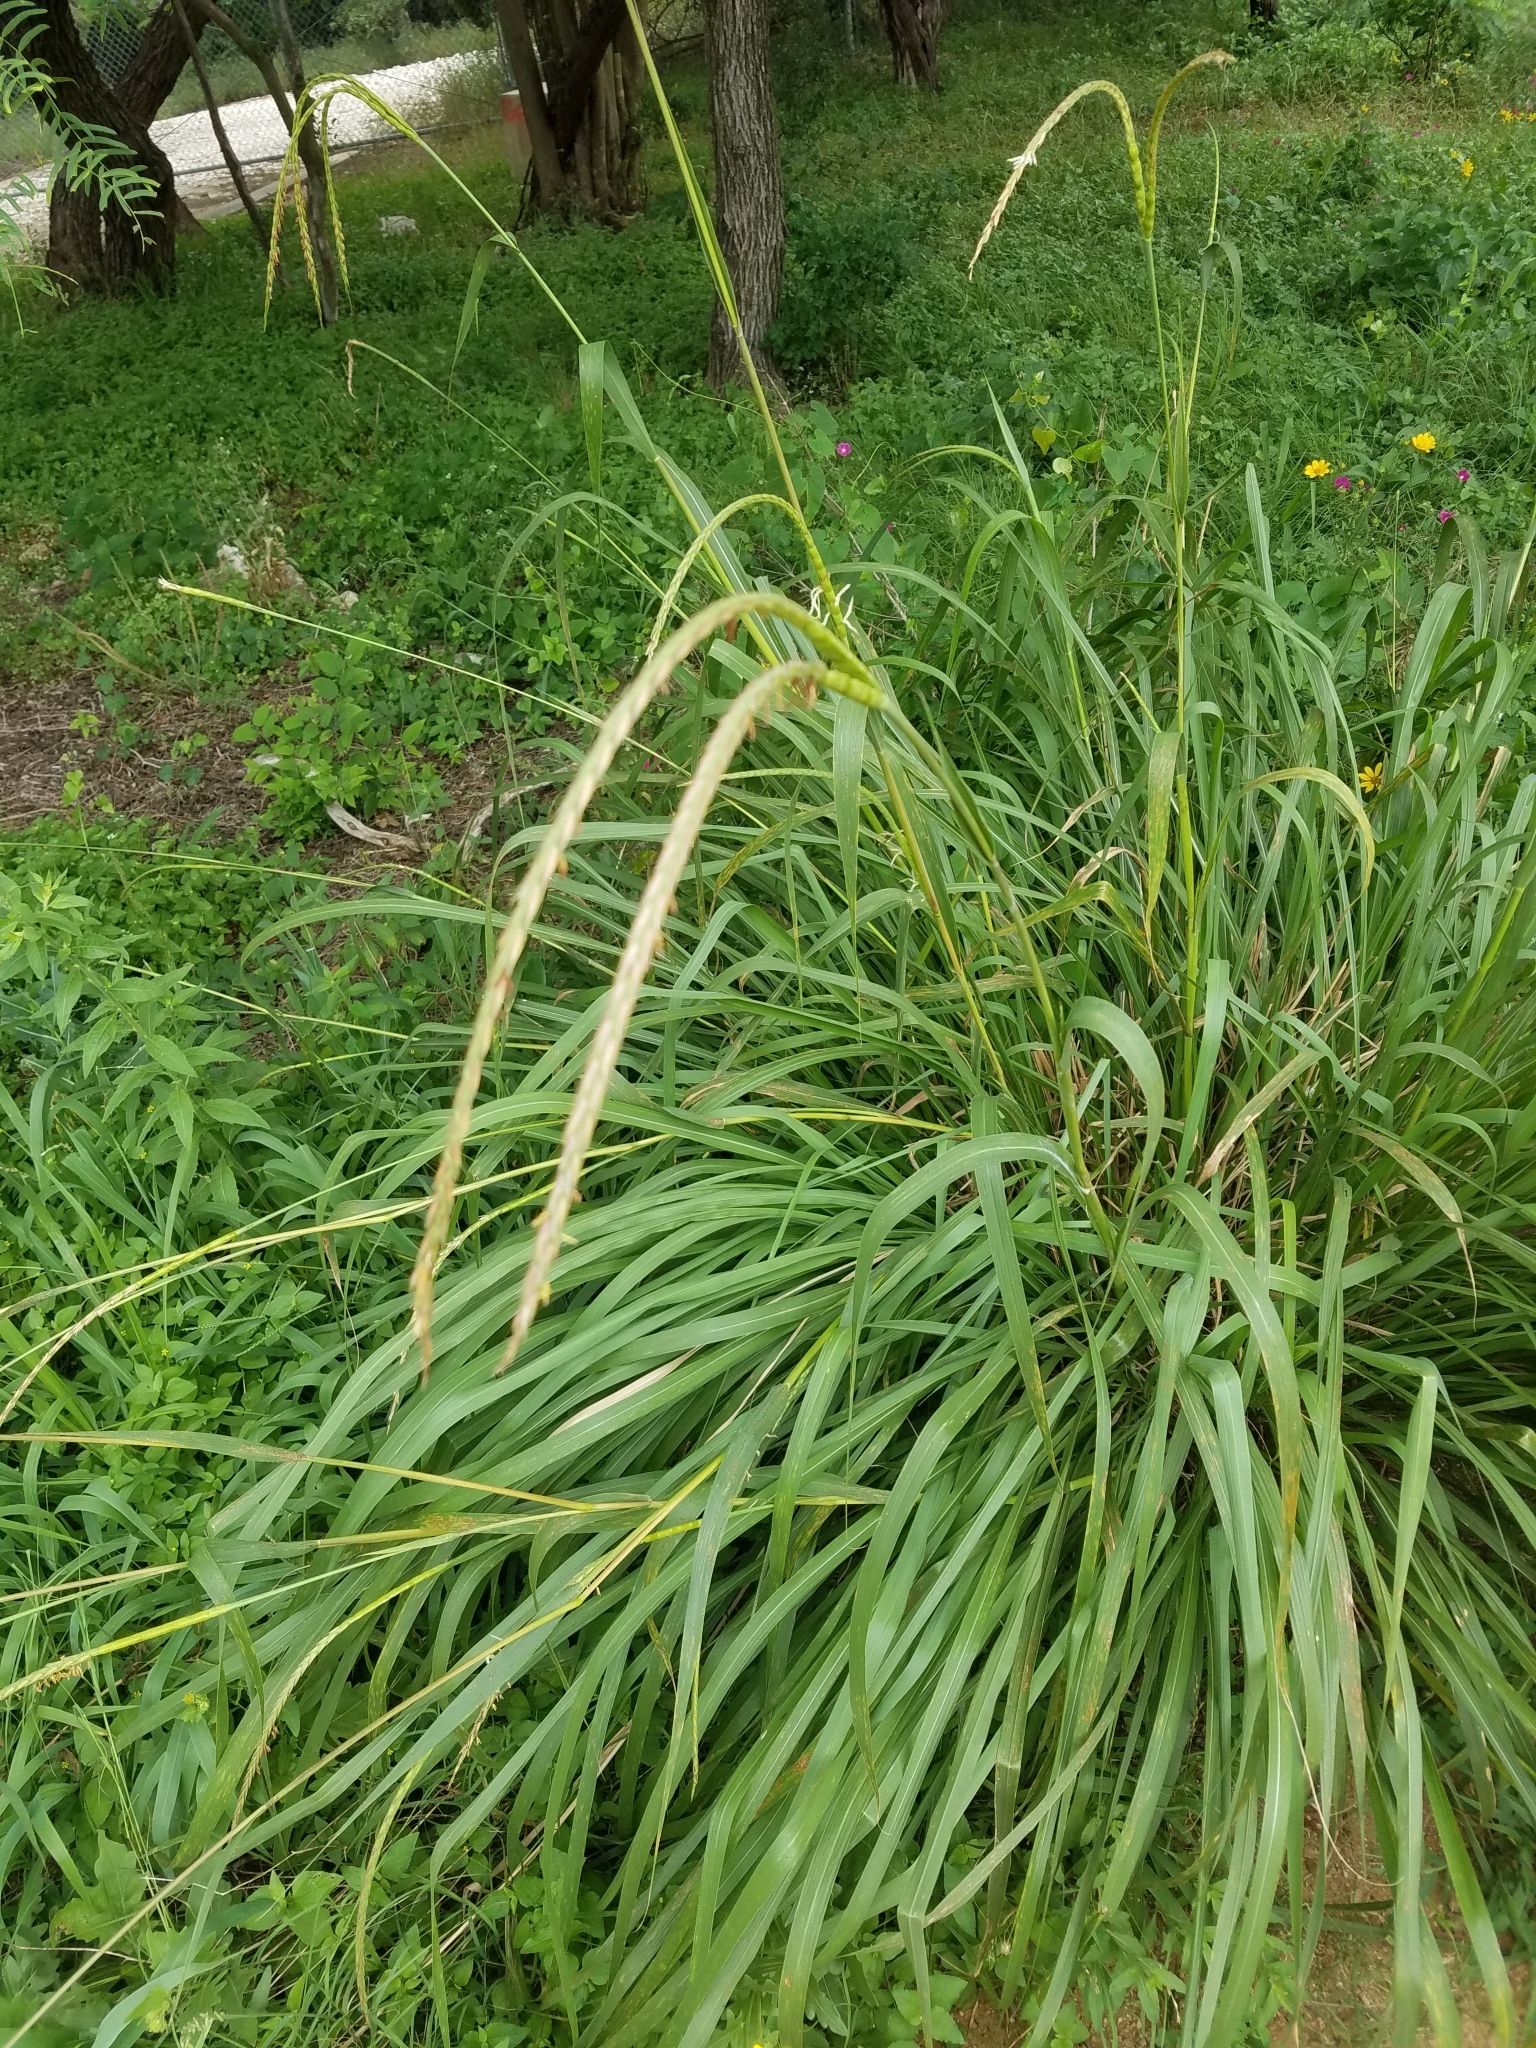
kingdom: Plantae
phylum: Tracheophyta
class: Liliopsida
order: Poales
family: Poaceae
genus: Tripsacum
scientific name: Tripsacum dactyloides
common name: Buffalo-grass
